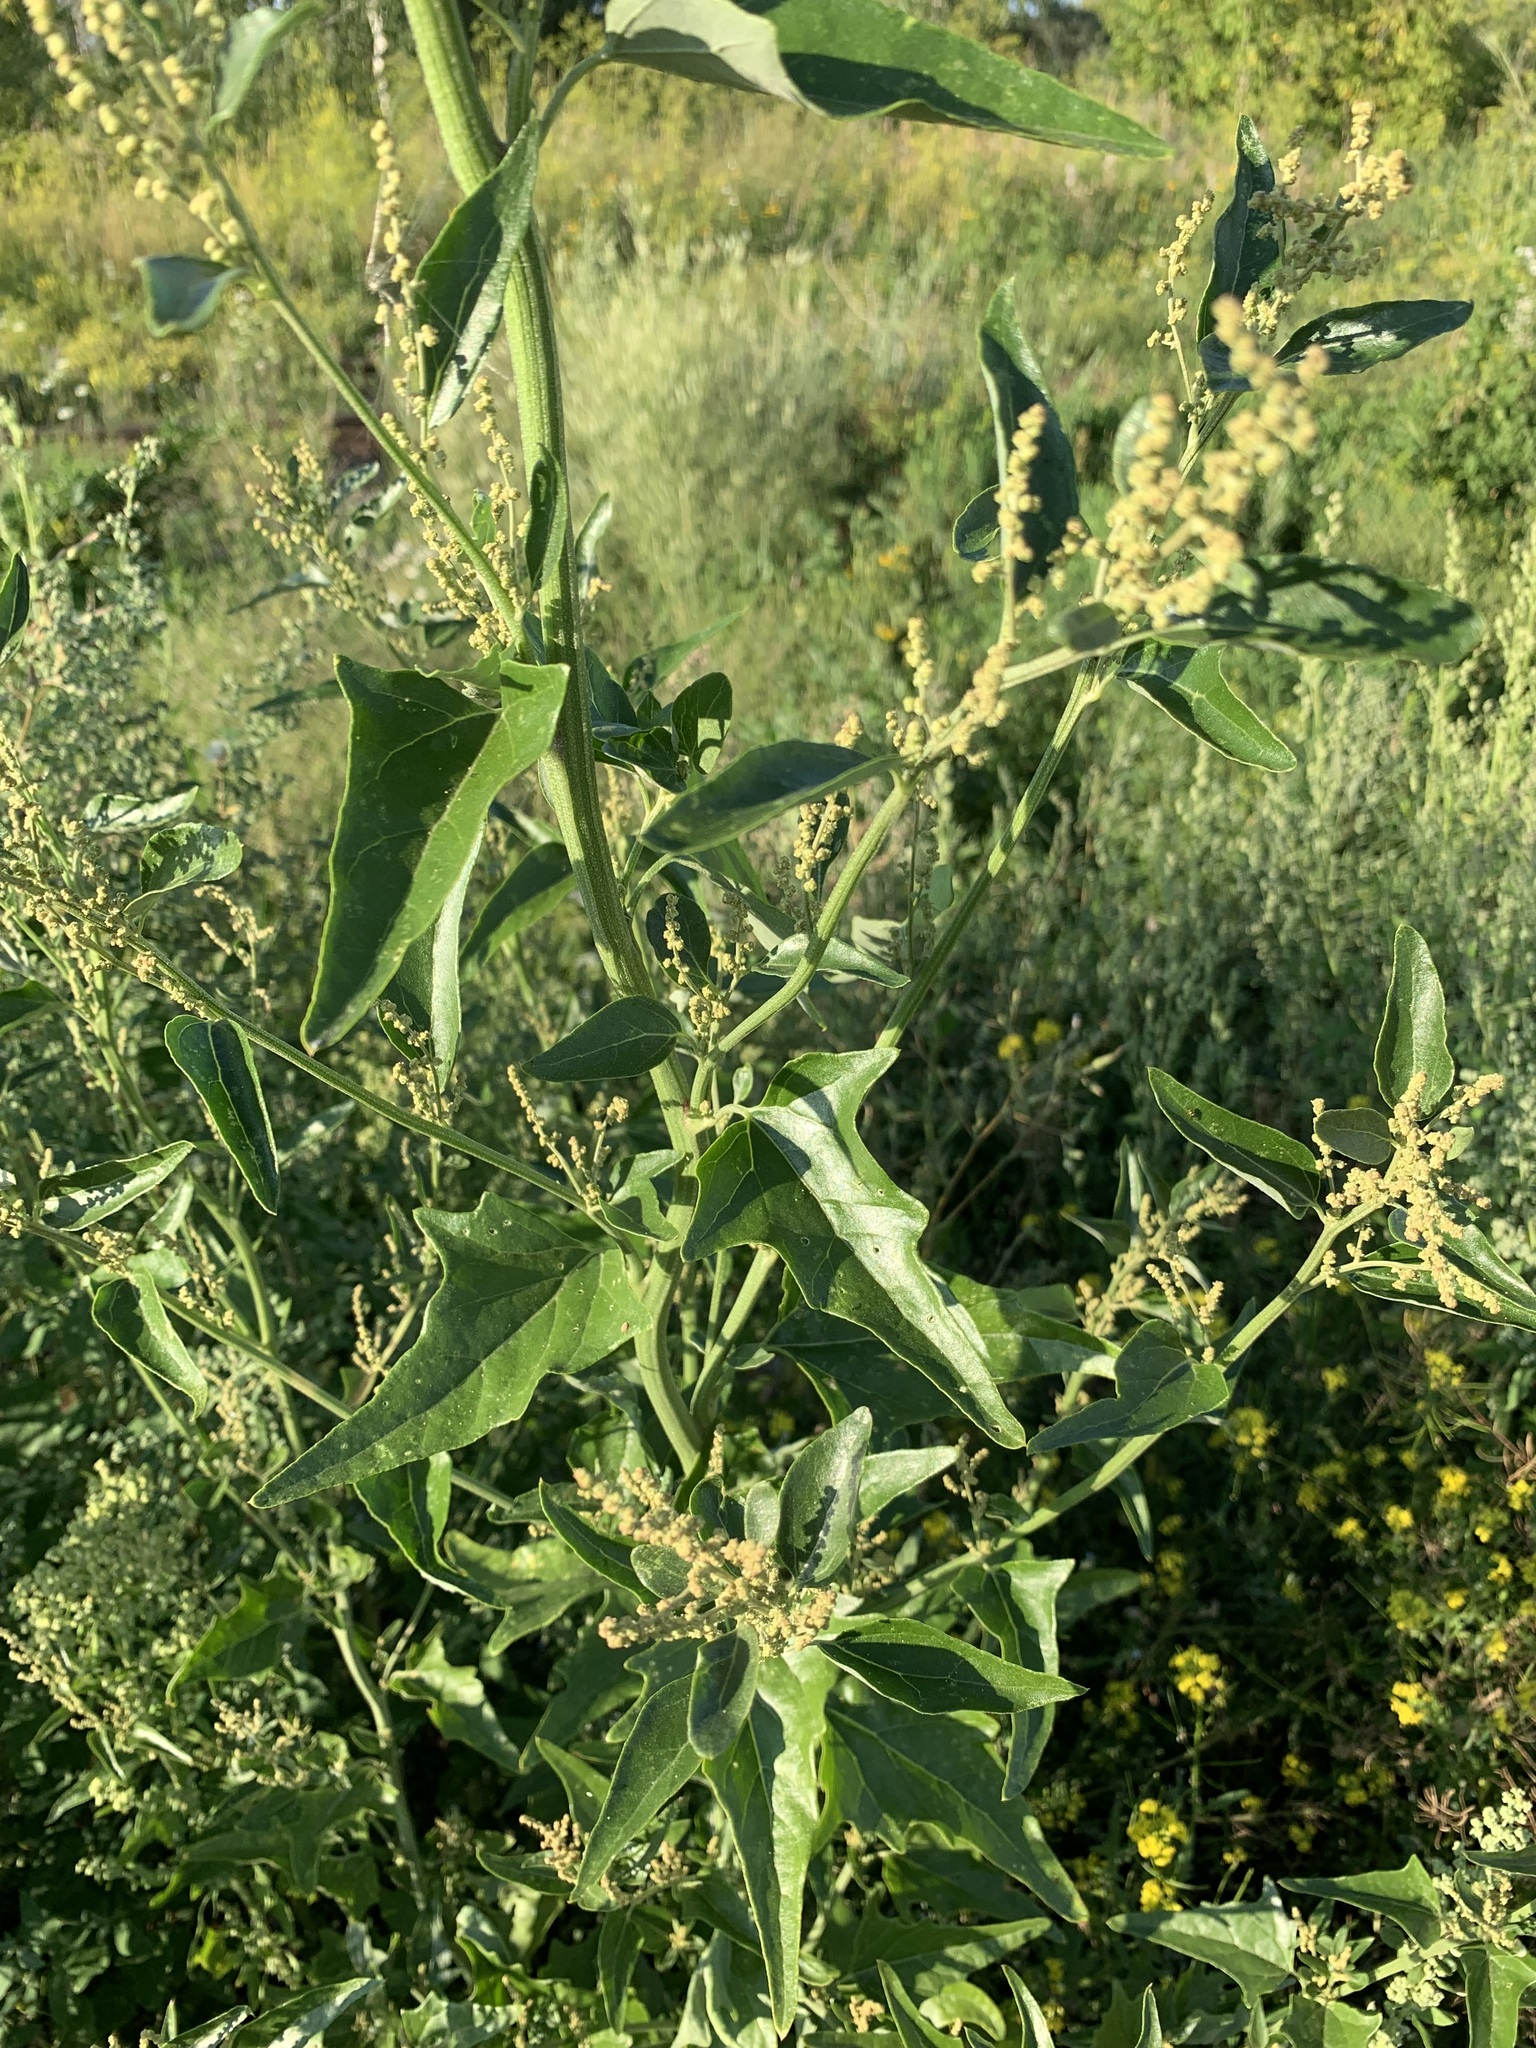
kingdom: Plantae
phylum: Tracheophyta
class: Magnoliopsida
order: Caryophyllales
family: Amaranthaceae
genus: Atriplex
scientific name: Atriplex sagittata
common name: Purple orache
